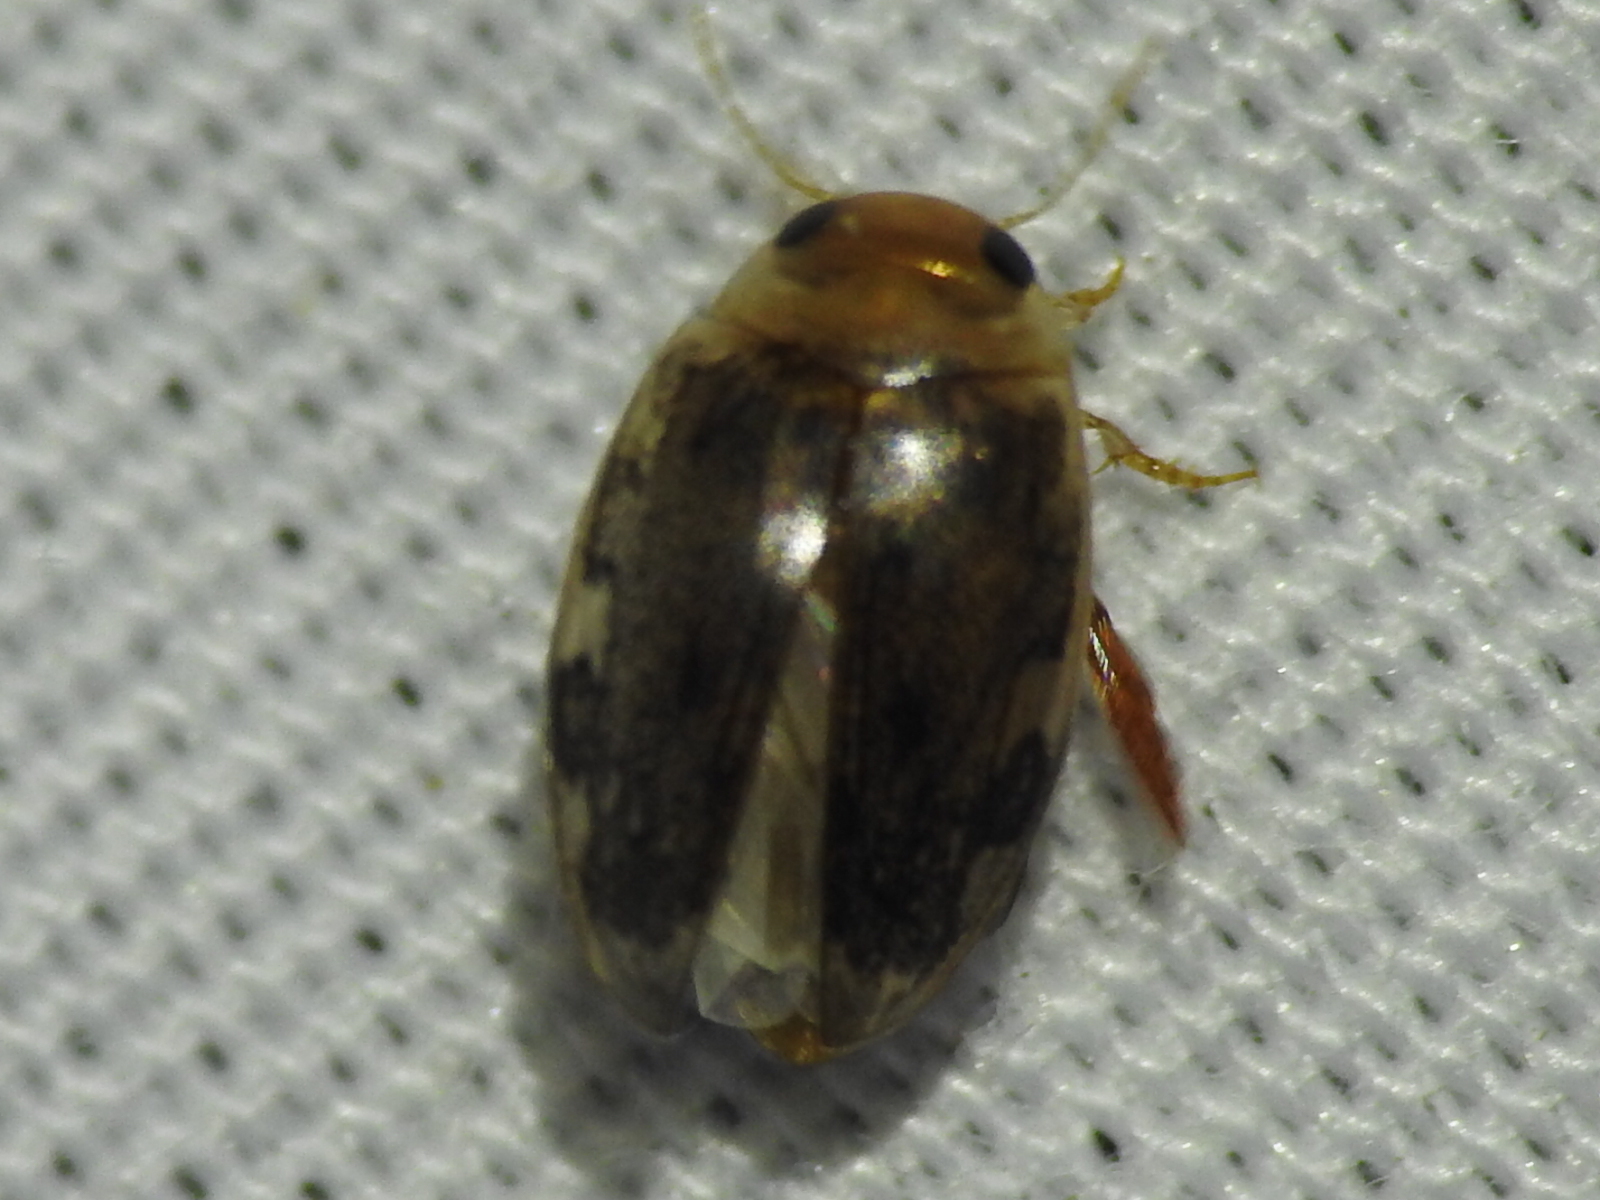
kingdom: Animalia
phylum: Arthropoda
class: Insecta
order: Coleoptera
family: Dytiscidae
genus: Laccophilus
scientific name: Laccophilus proximus
